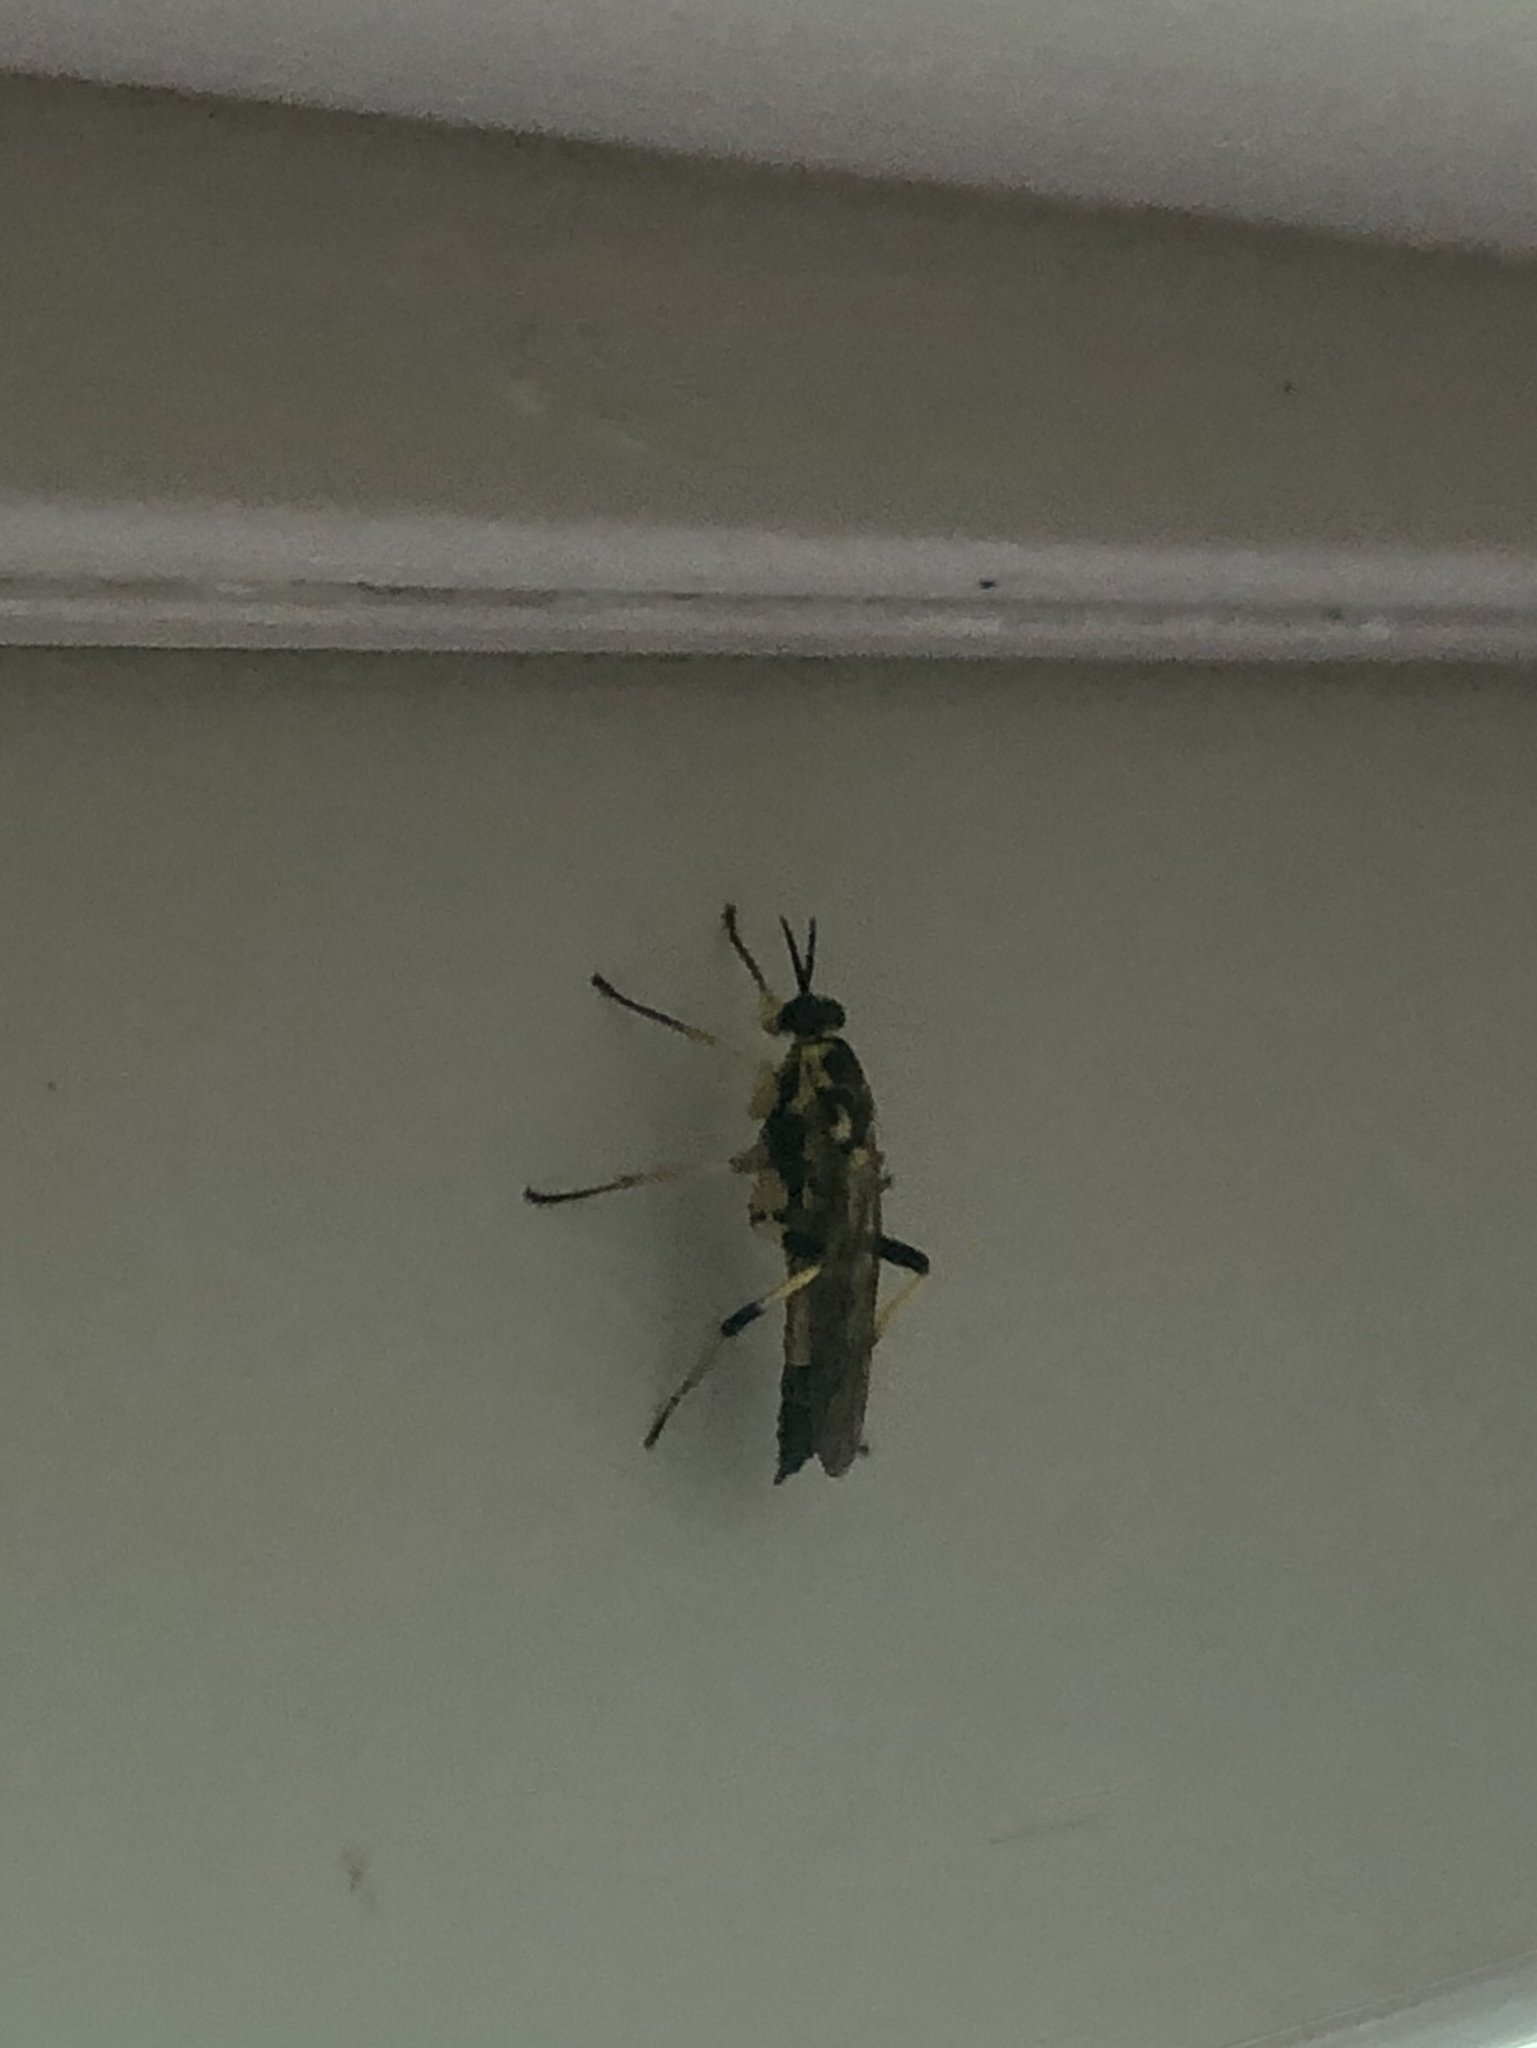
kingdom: Animalia
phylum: Arthropoda
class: Insecta
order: Diptera
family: Xylomyidae
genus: Xylomya
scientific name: Xylomya terminalis
